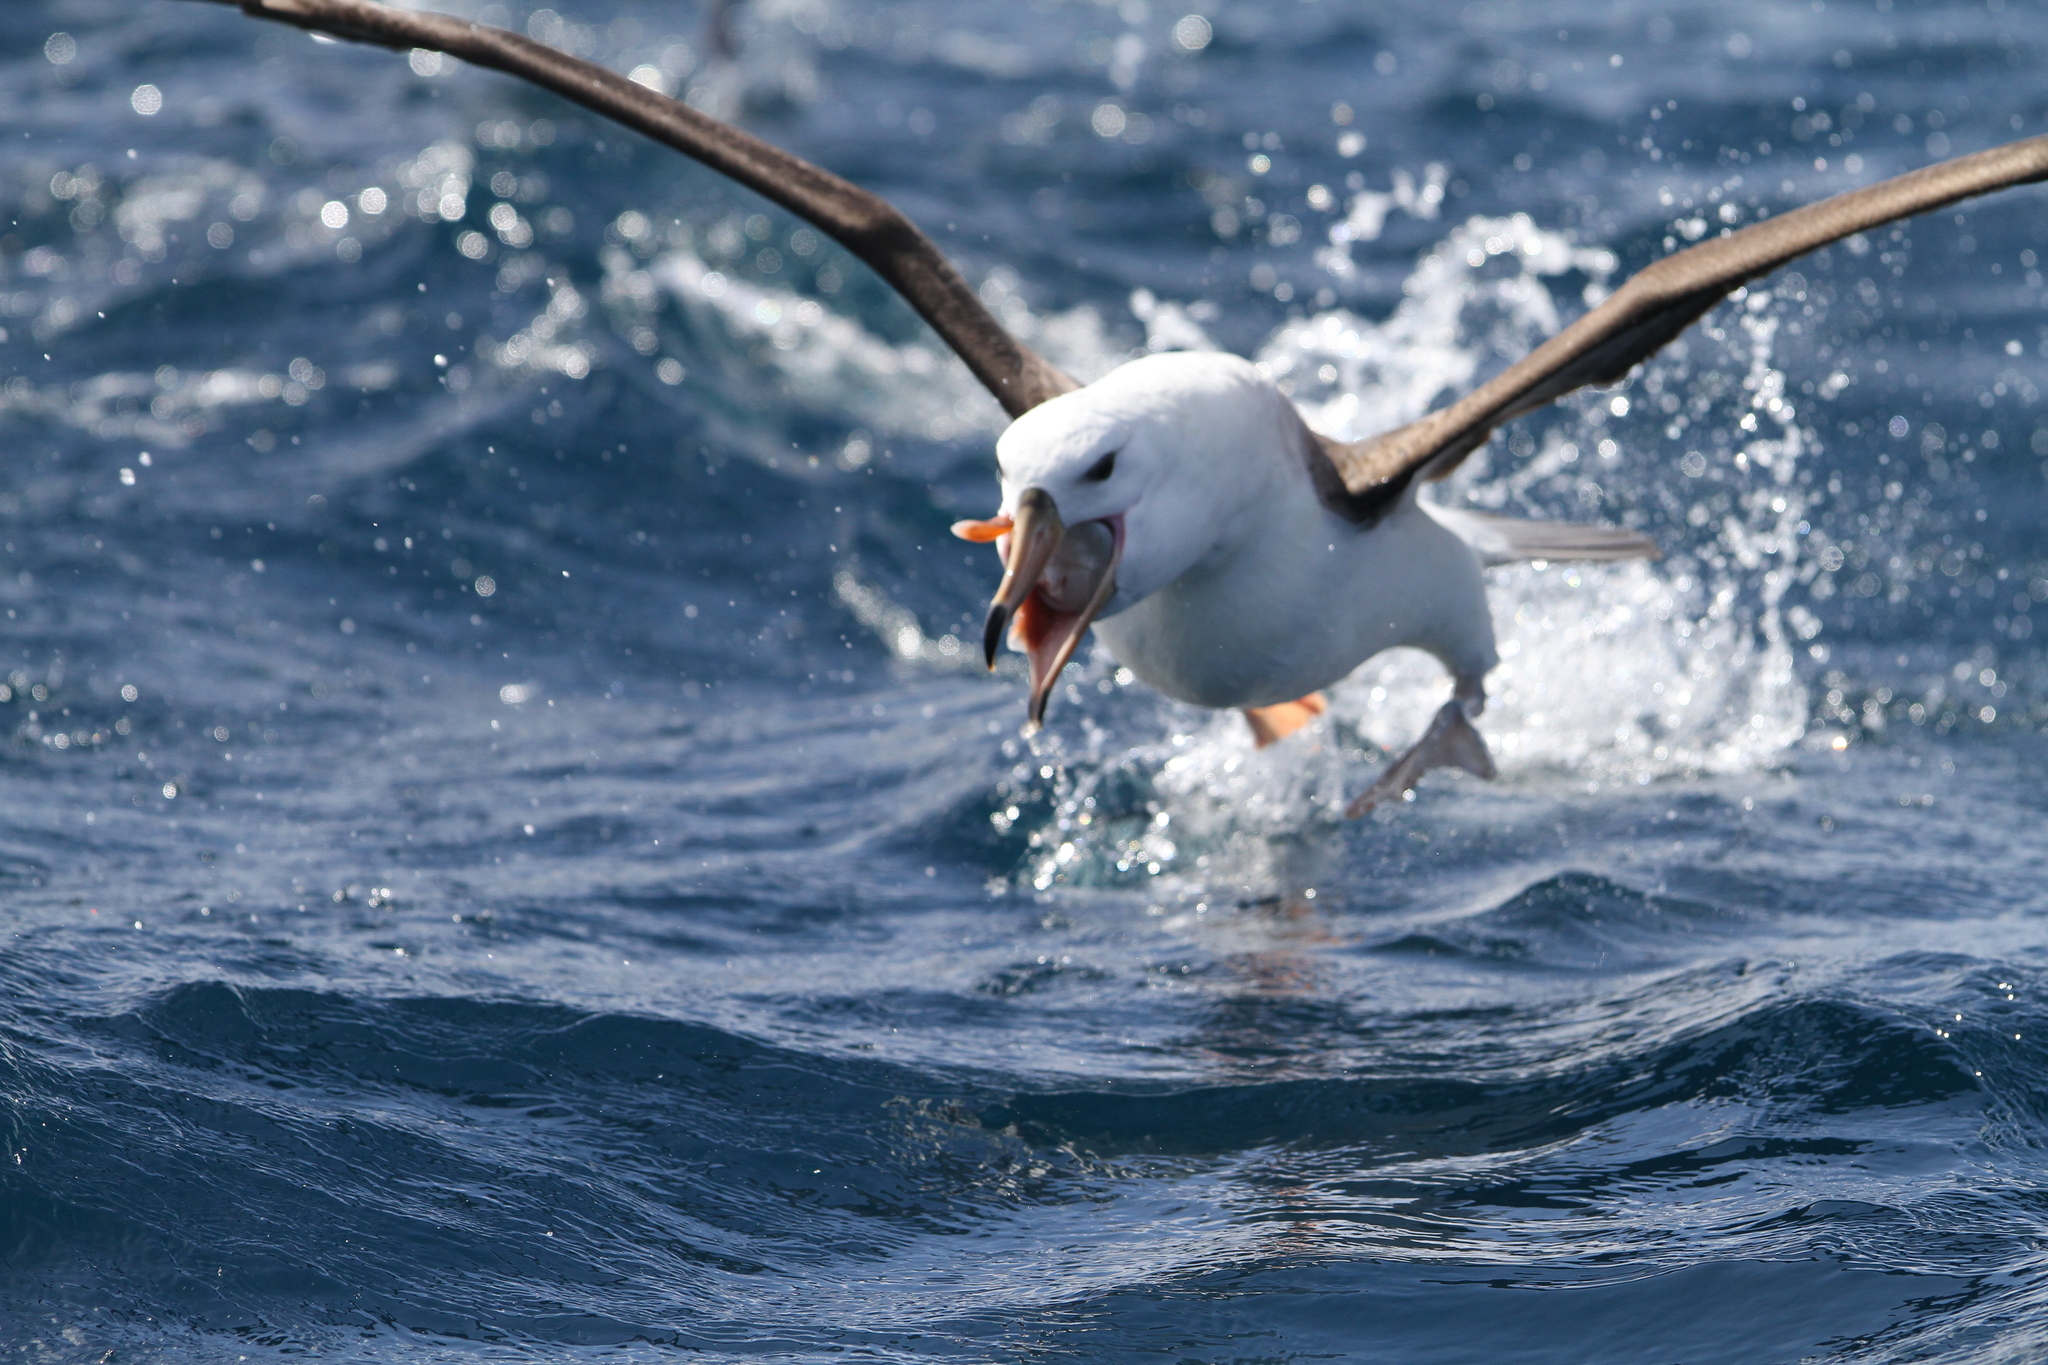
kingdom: Animalia
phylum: Chordata
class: Aves
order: Procellariiformes
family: Diomedeidae
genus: Thalassarche
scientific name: Thalassarche melanophris
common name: Black-browed albatross
